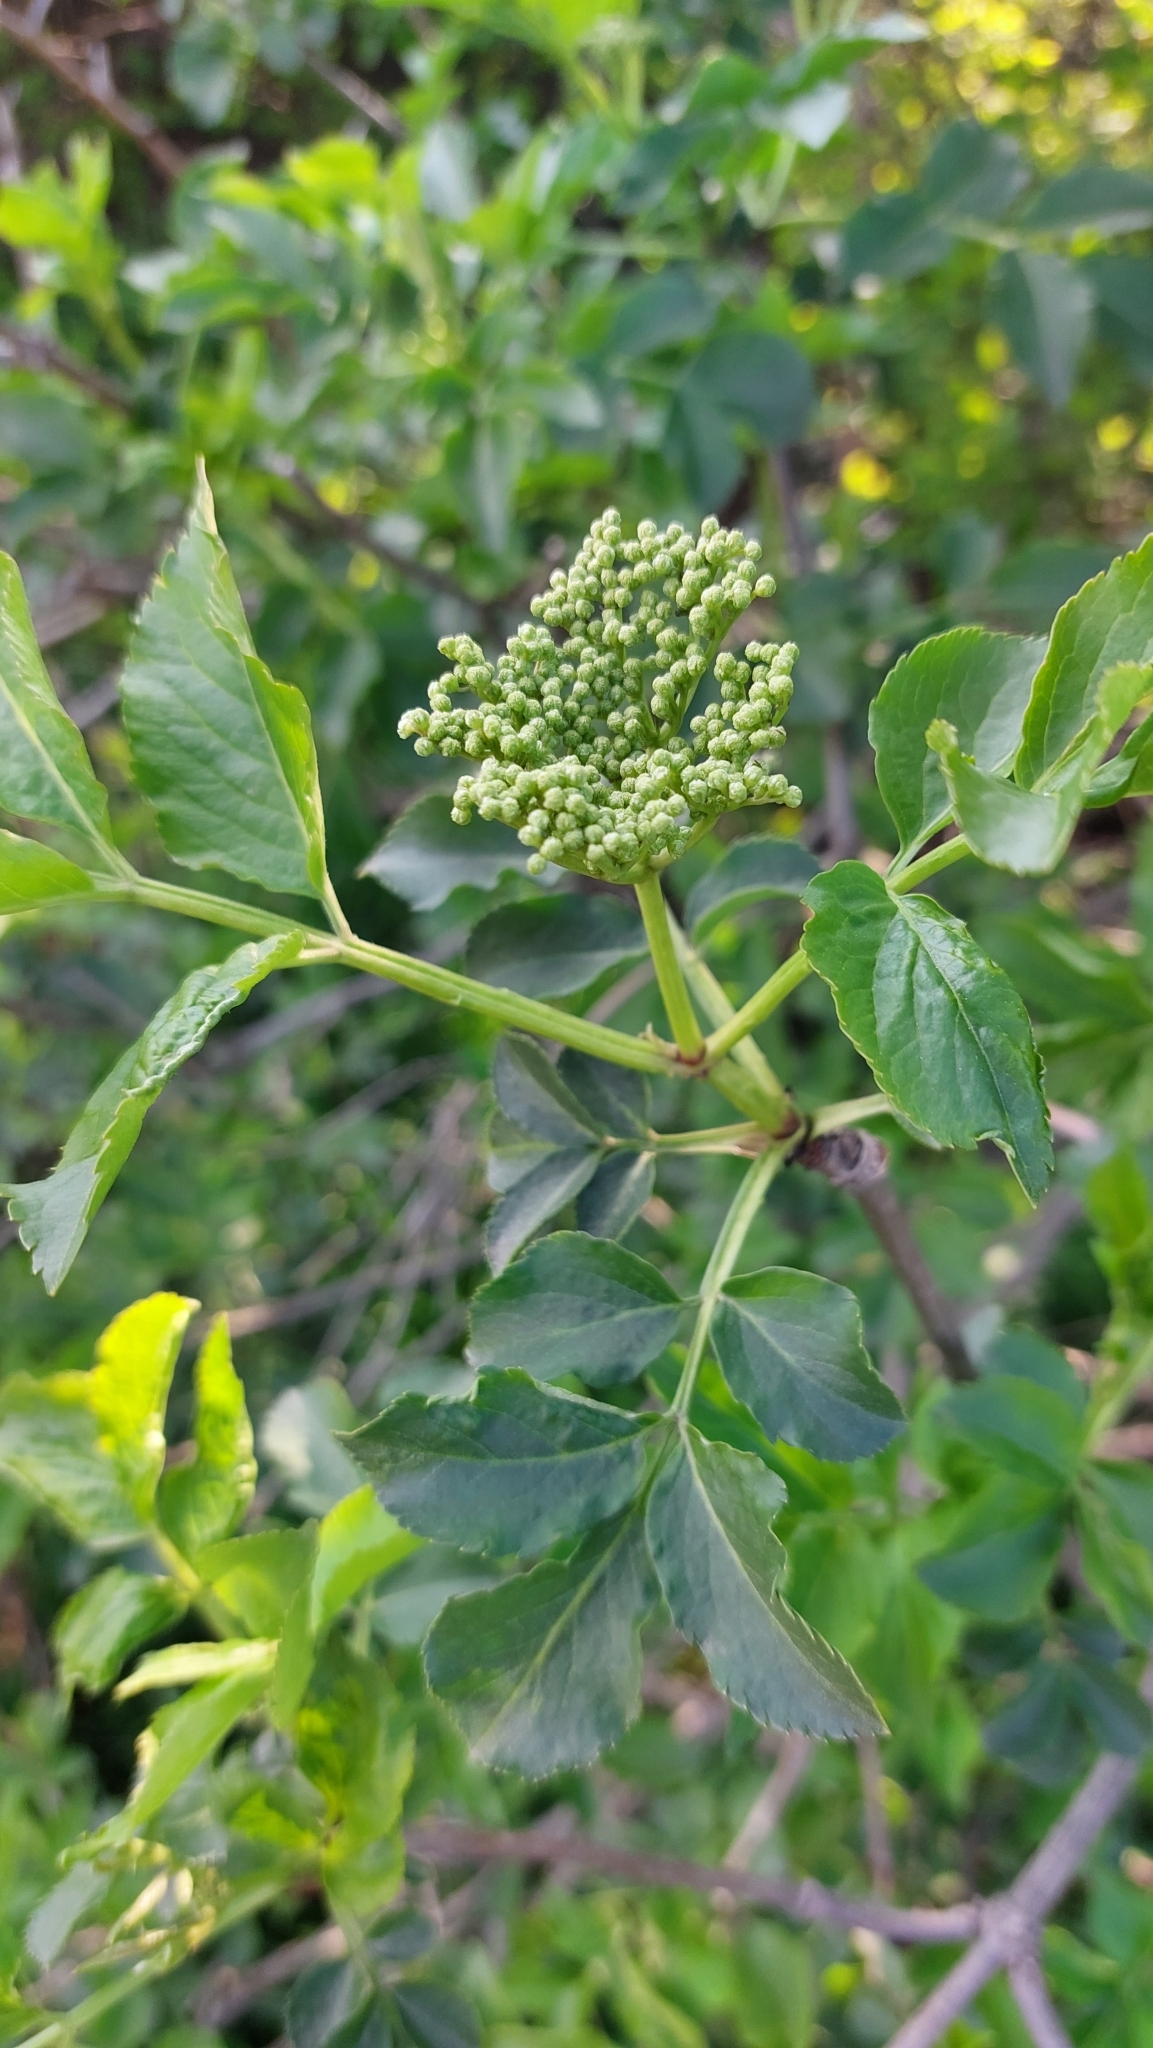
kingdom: Plantae
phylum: Tracheophyta
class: Magnoliopsida
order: Dipsacales
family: Viburnaceae
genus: Sambucus
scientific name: Sambucus nigra
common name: Elder
